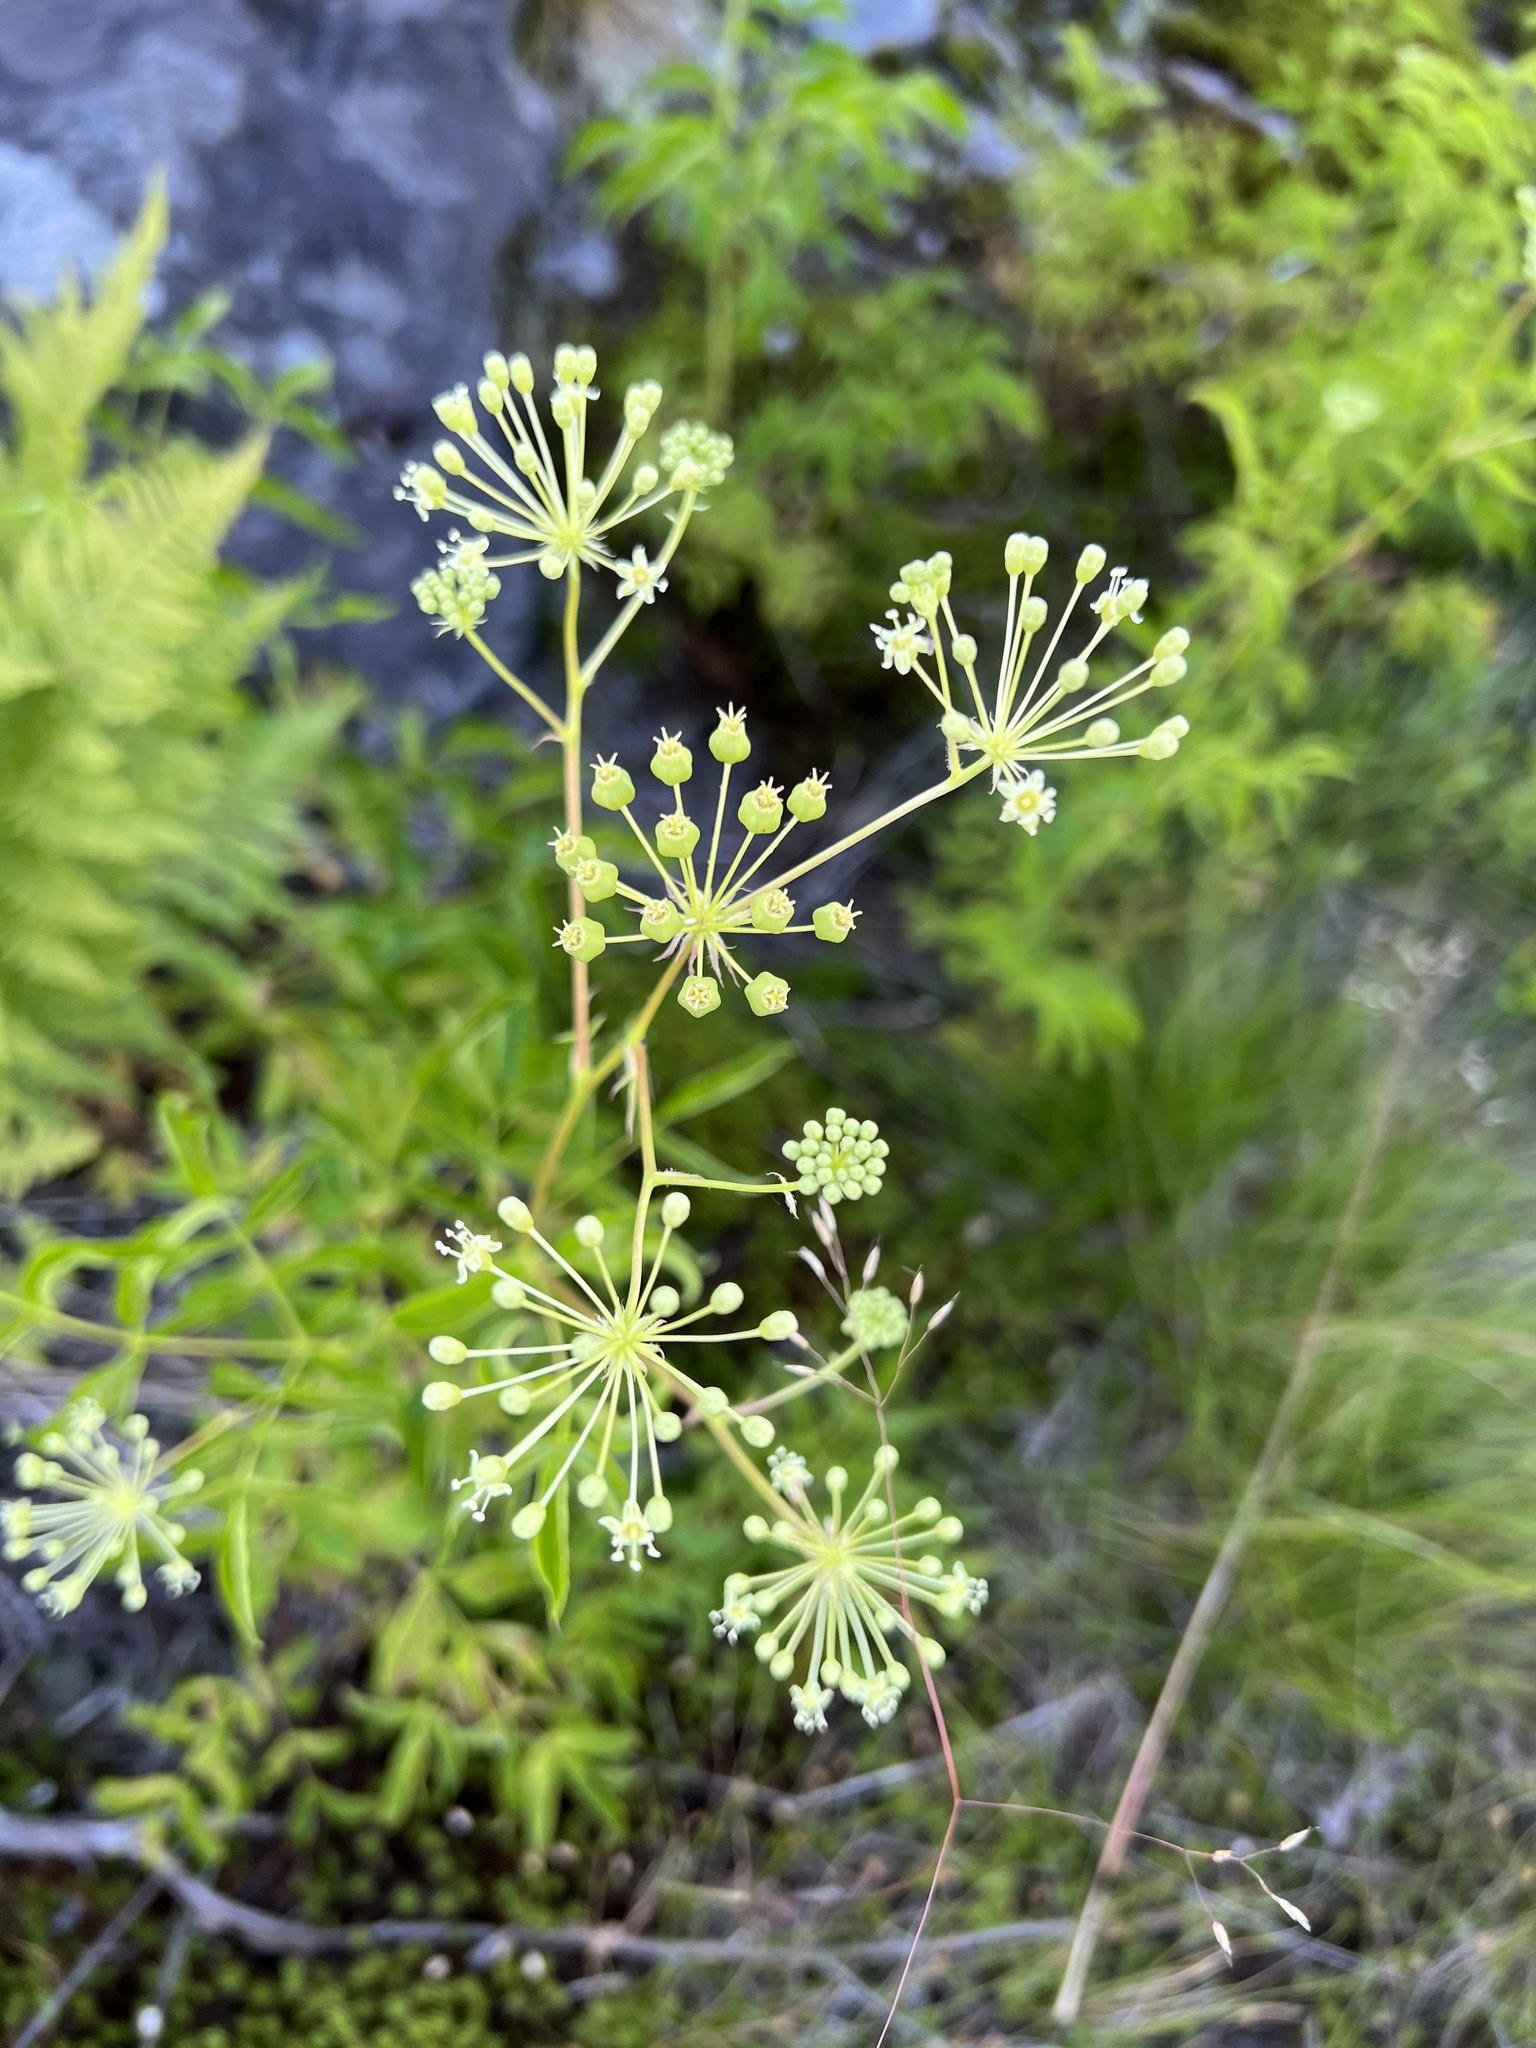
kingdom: Plantae
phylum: Tracheophyta
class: Magnoliopsida
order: Apiales
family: Araliaceae
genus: Aralia
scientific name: Aralia hispida
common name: Bristly sarsaparilla
